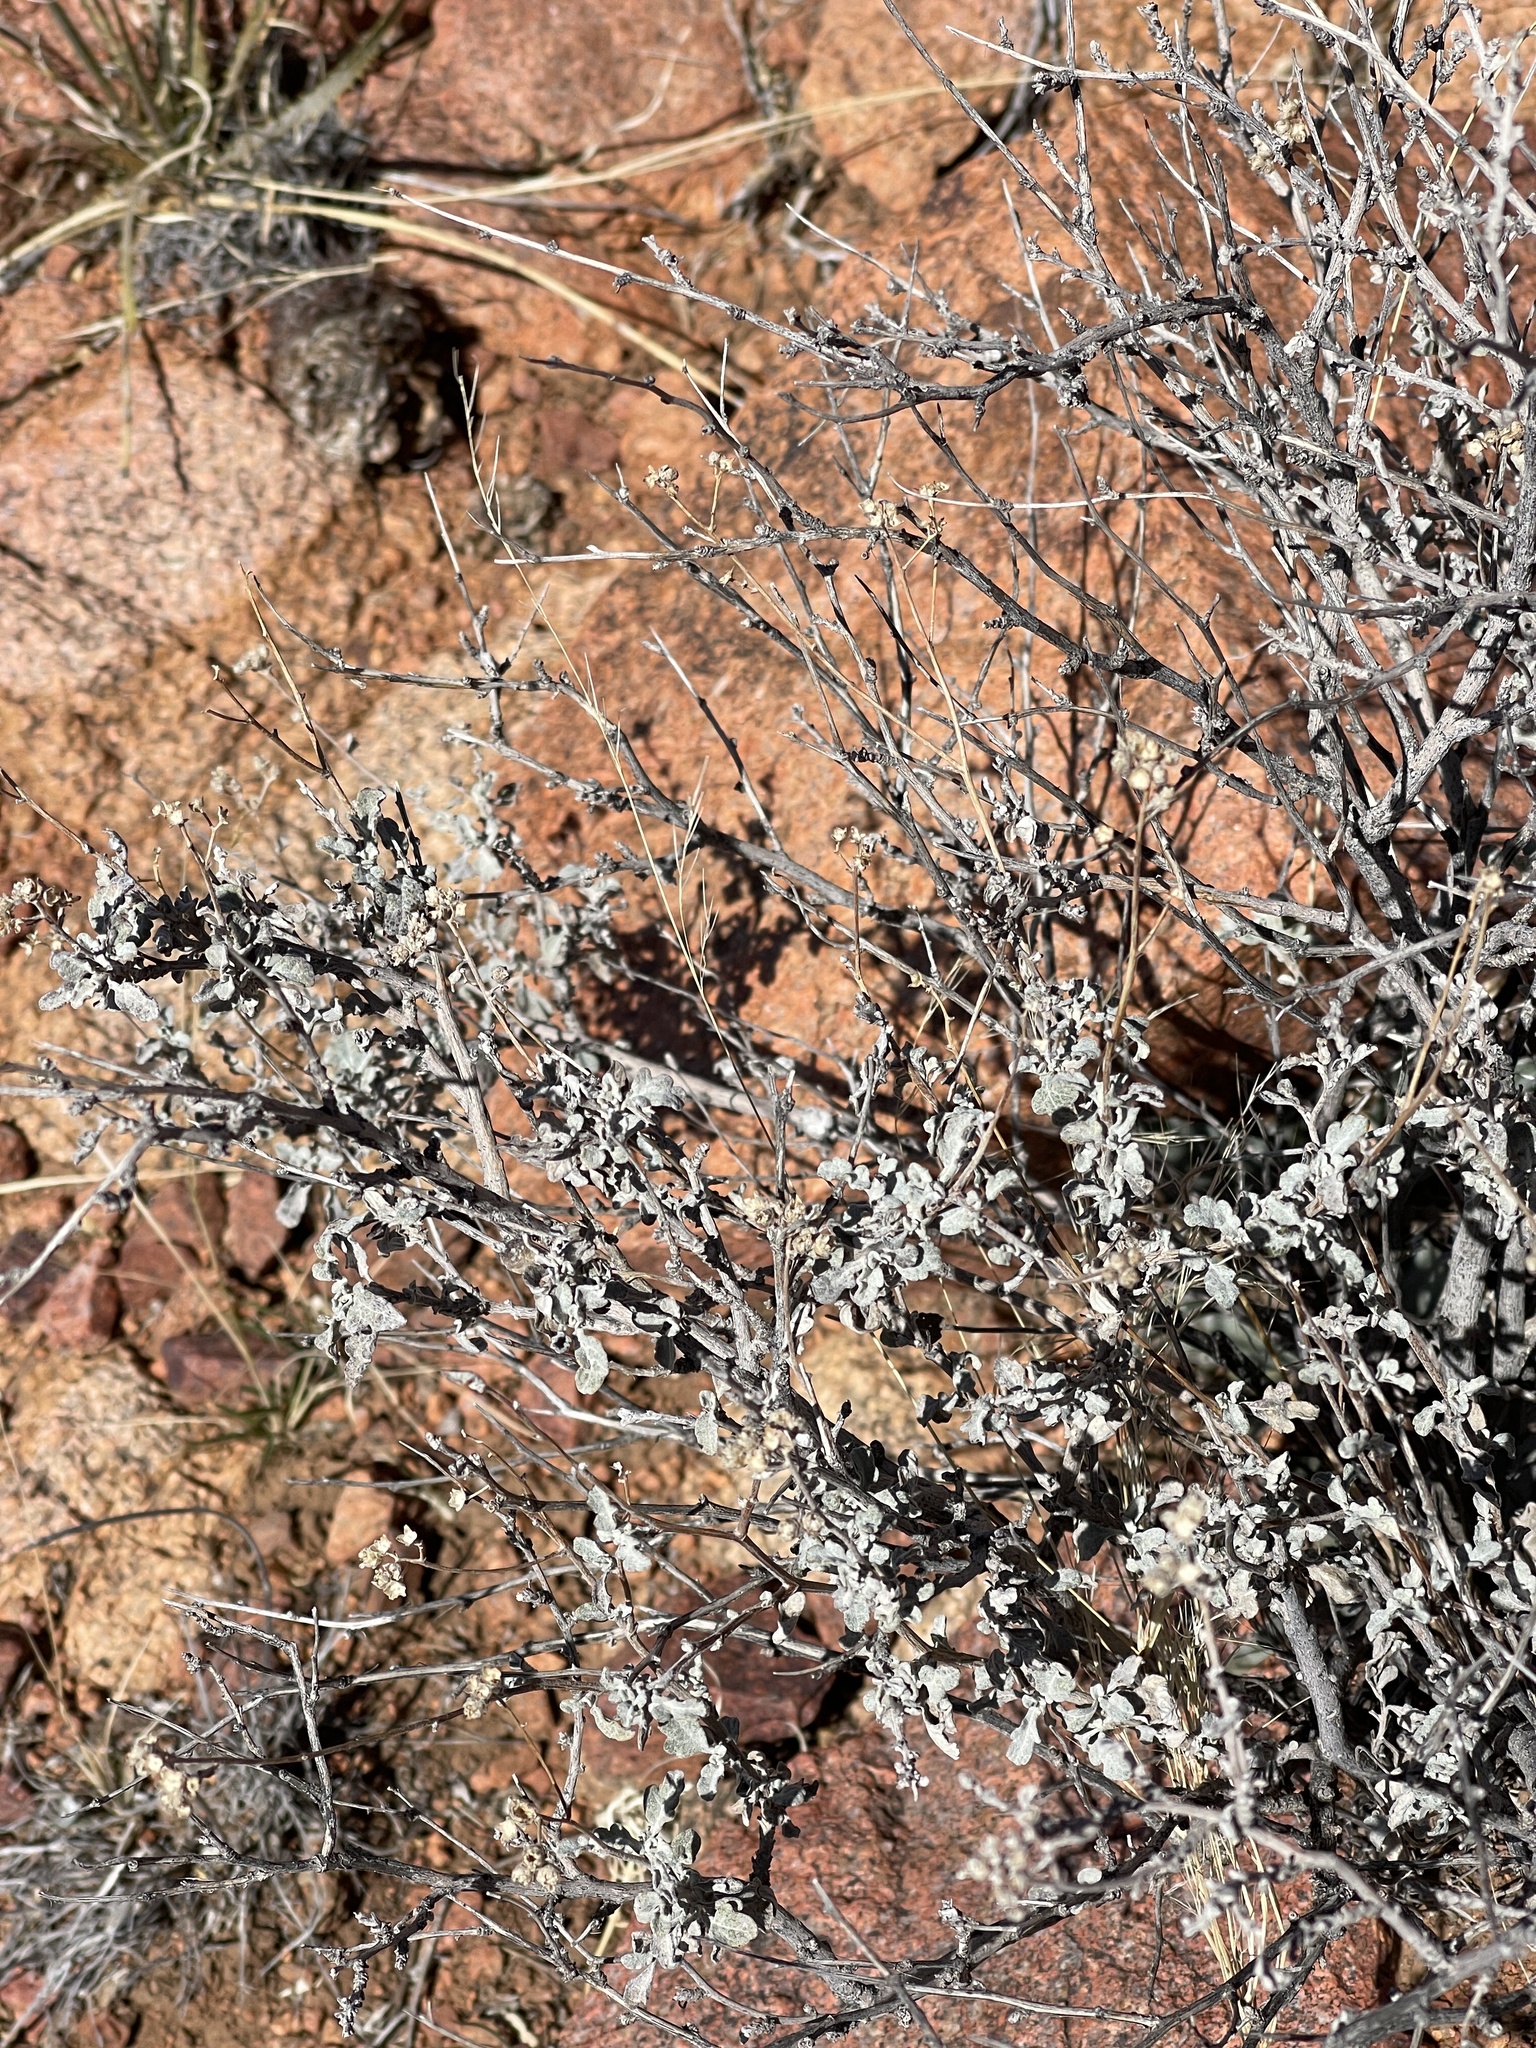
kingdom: Plantae
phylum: Tracheophyta
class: Magnoliopsida
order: Asterales
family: Asteraceae
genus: Parthenium
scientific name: Parthenium incanum
